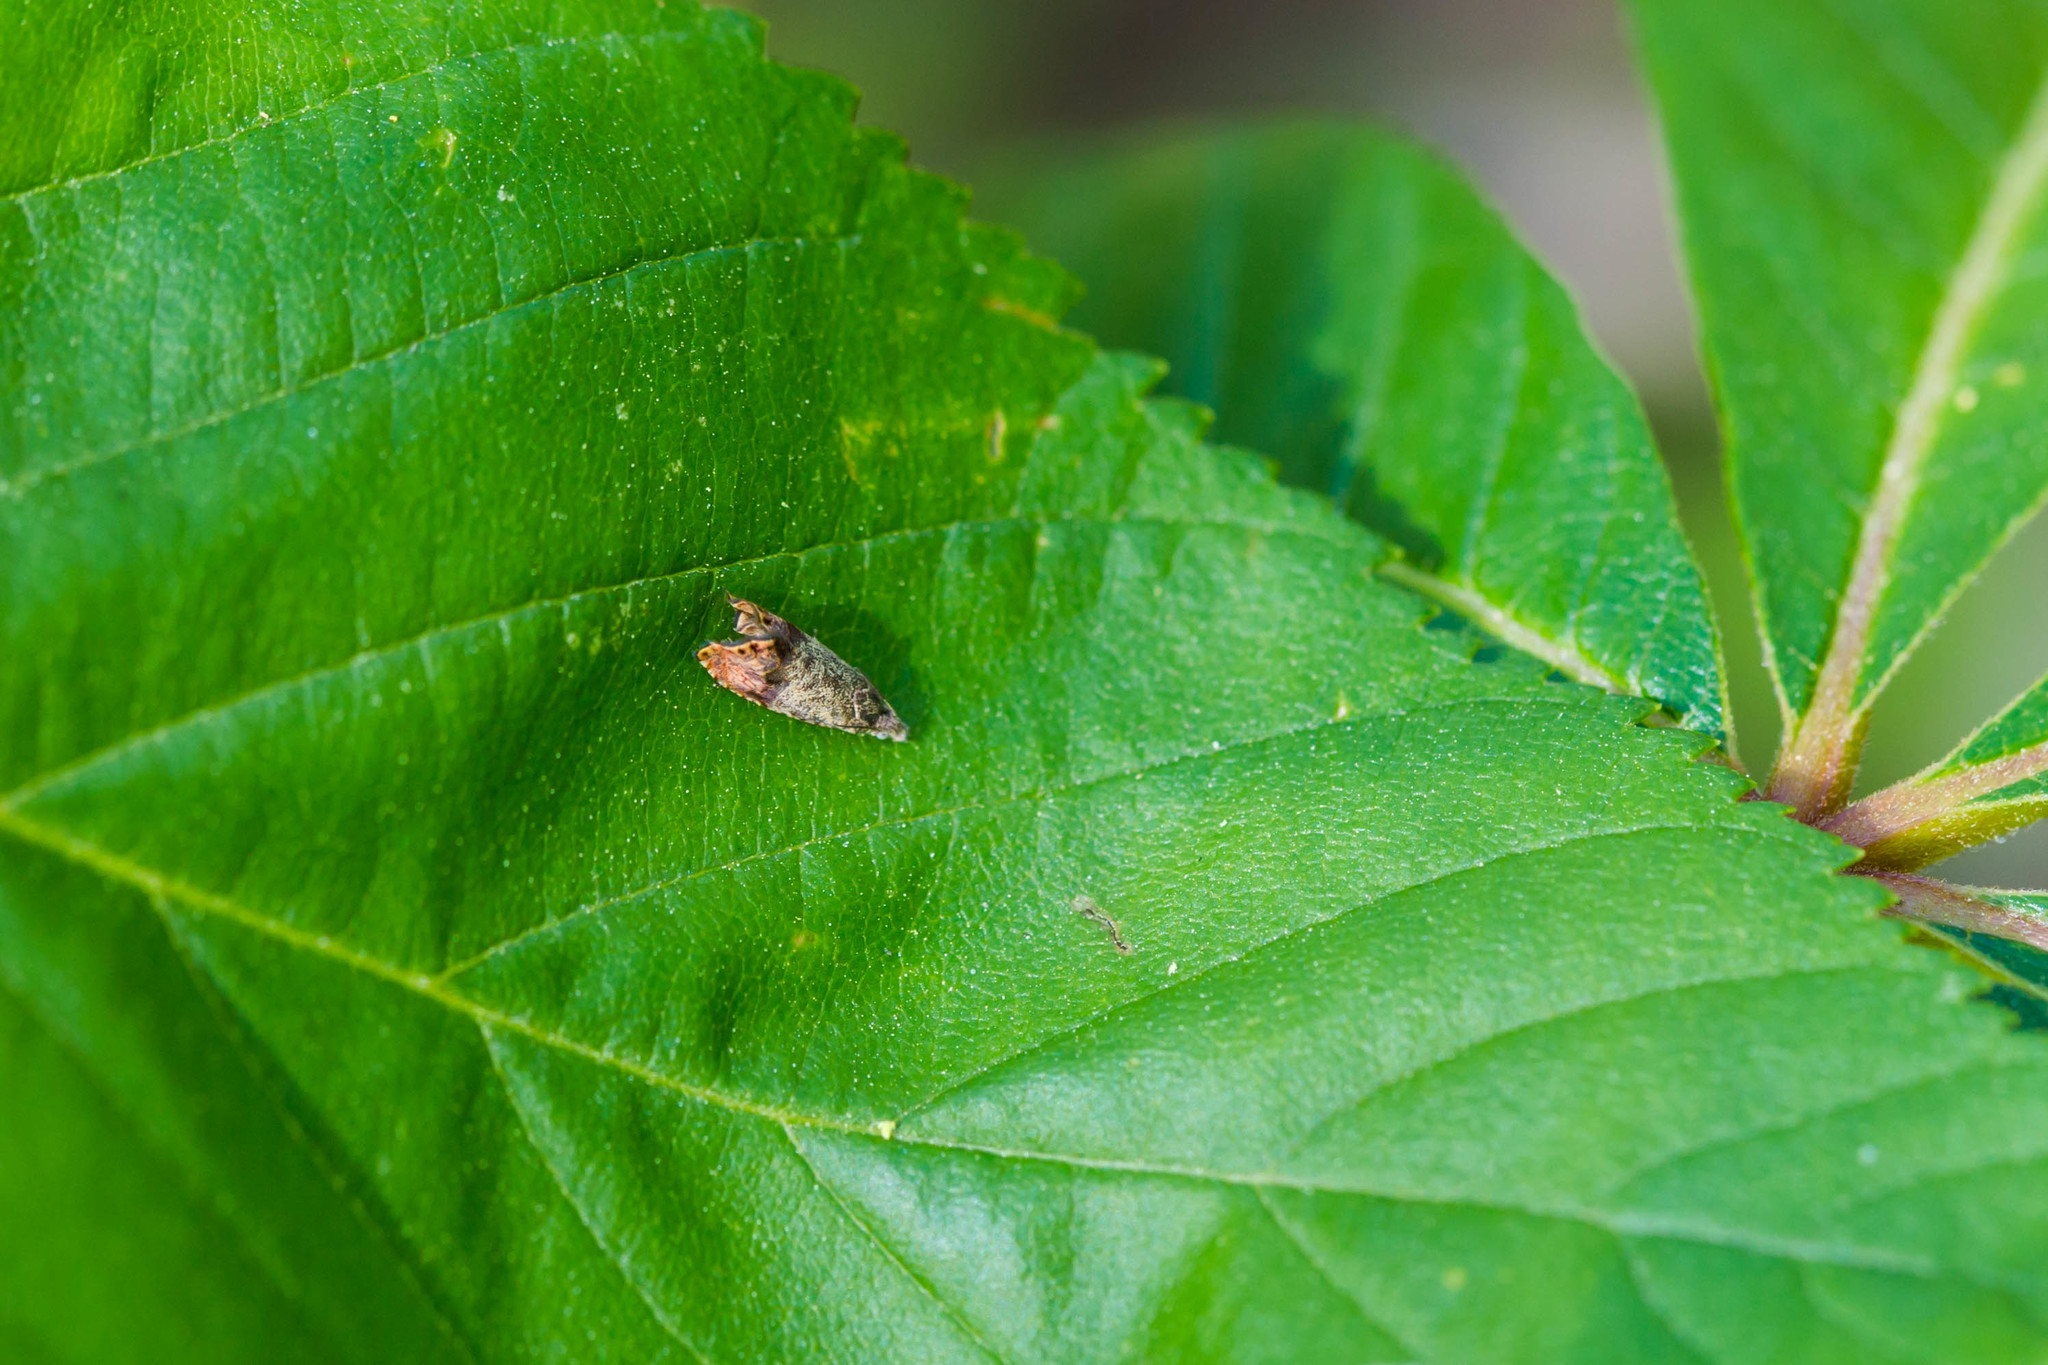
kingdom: Animalia
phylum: Arthropoda
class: Insecta
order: Lepidoptera
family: Tortricidae
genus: Talponia
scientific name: Talponia plummeriana
